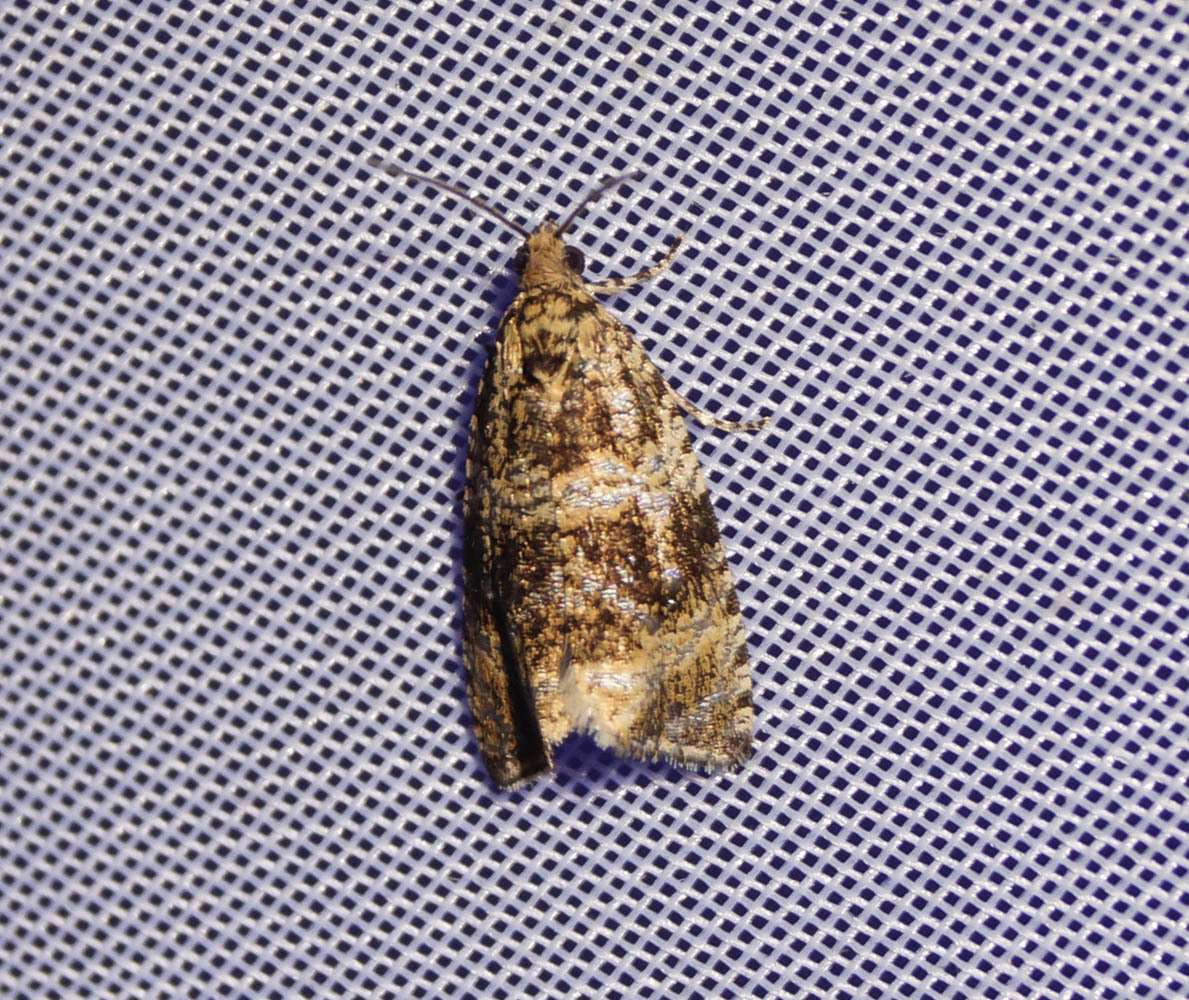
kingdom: Animalia
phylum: Arthropoda
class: Insecta
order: Lepidoptera
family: Tortricidae
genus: Syricoris
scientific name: Syricoris lacunana
